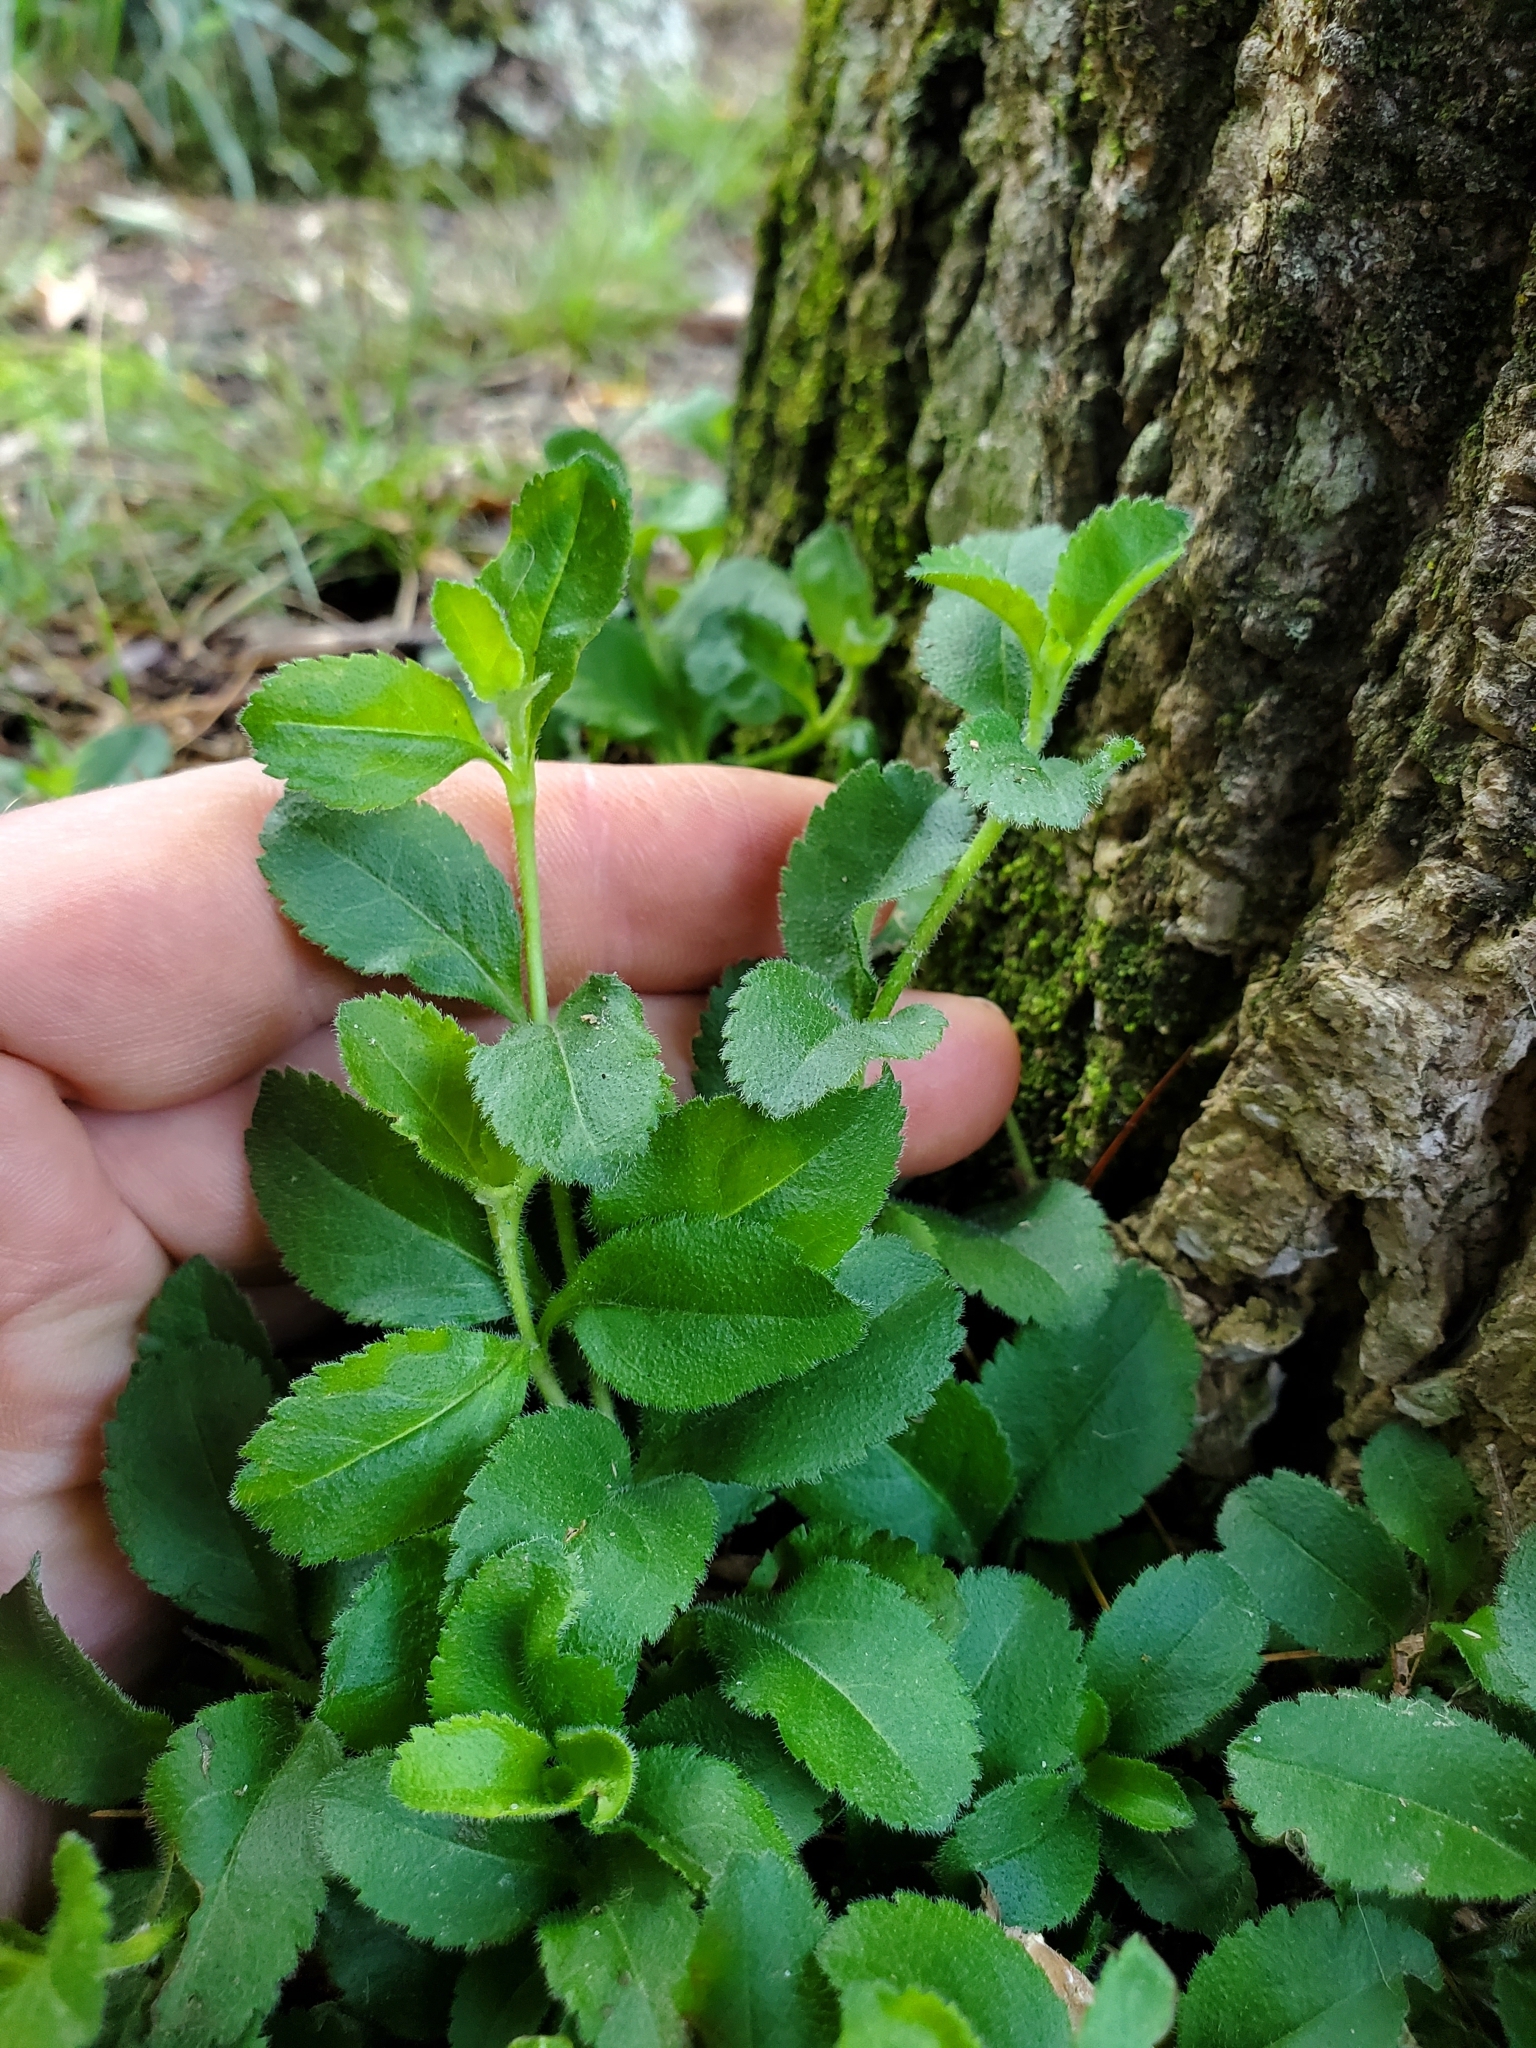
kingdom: Plantae
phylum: Tracheophyta
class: Magnoliopsida
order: Lamiales
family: Plantaginaceae
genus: Veronica
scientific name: Veronica officinalis
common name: Common speedwell
